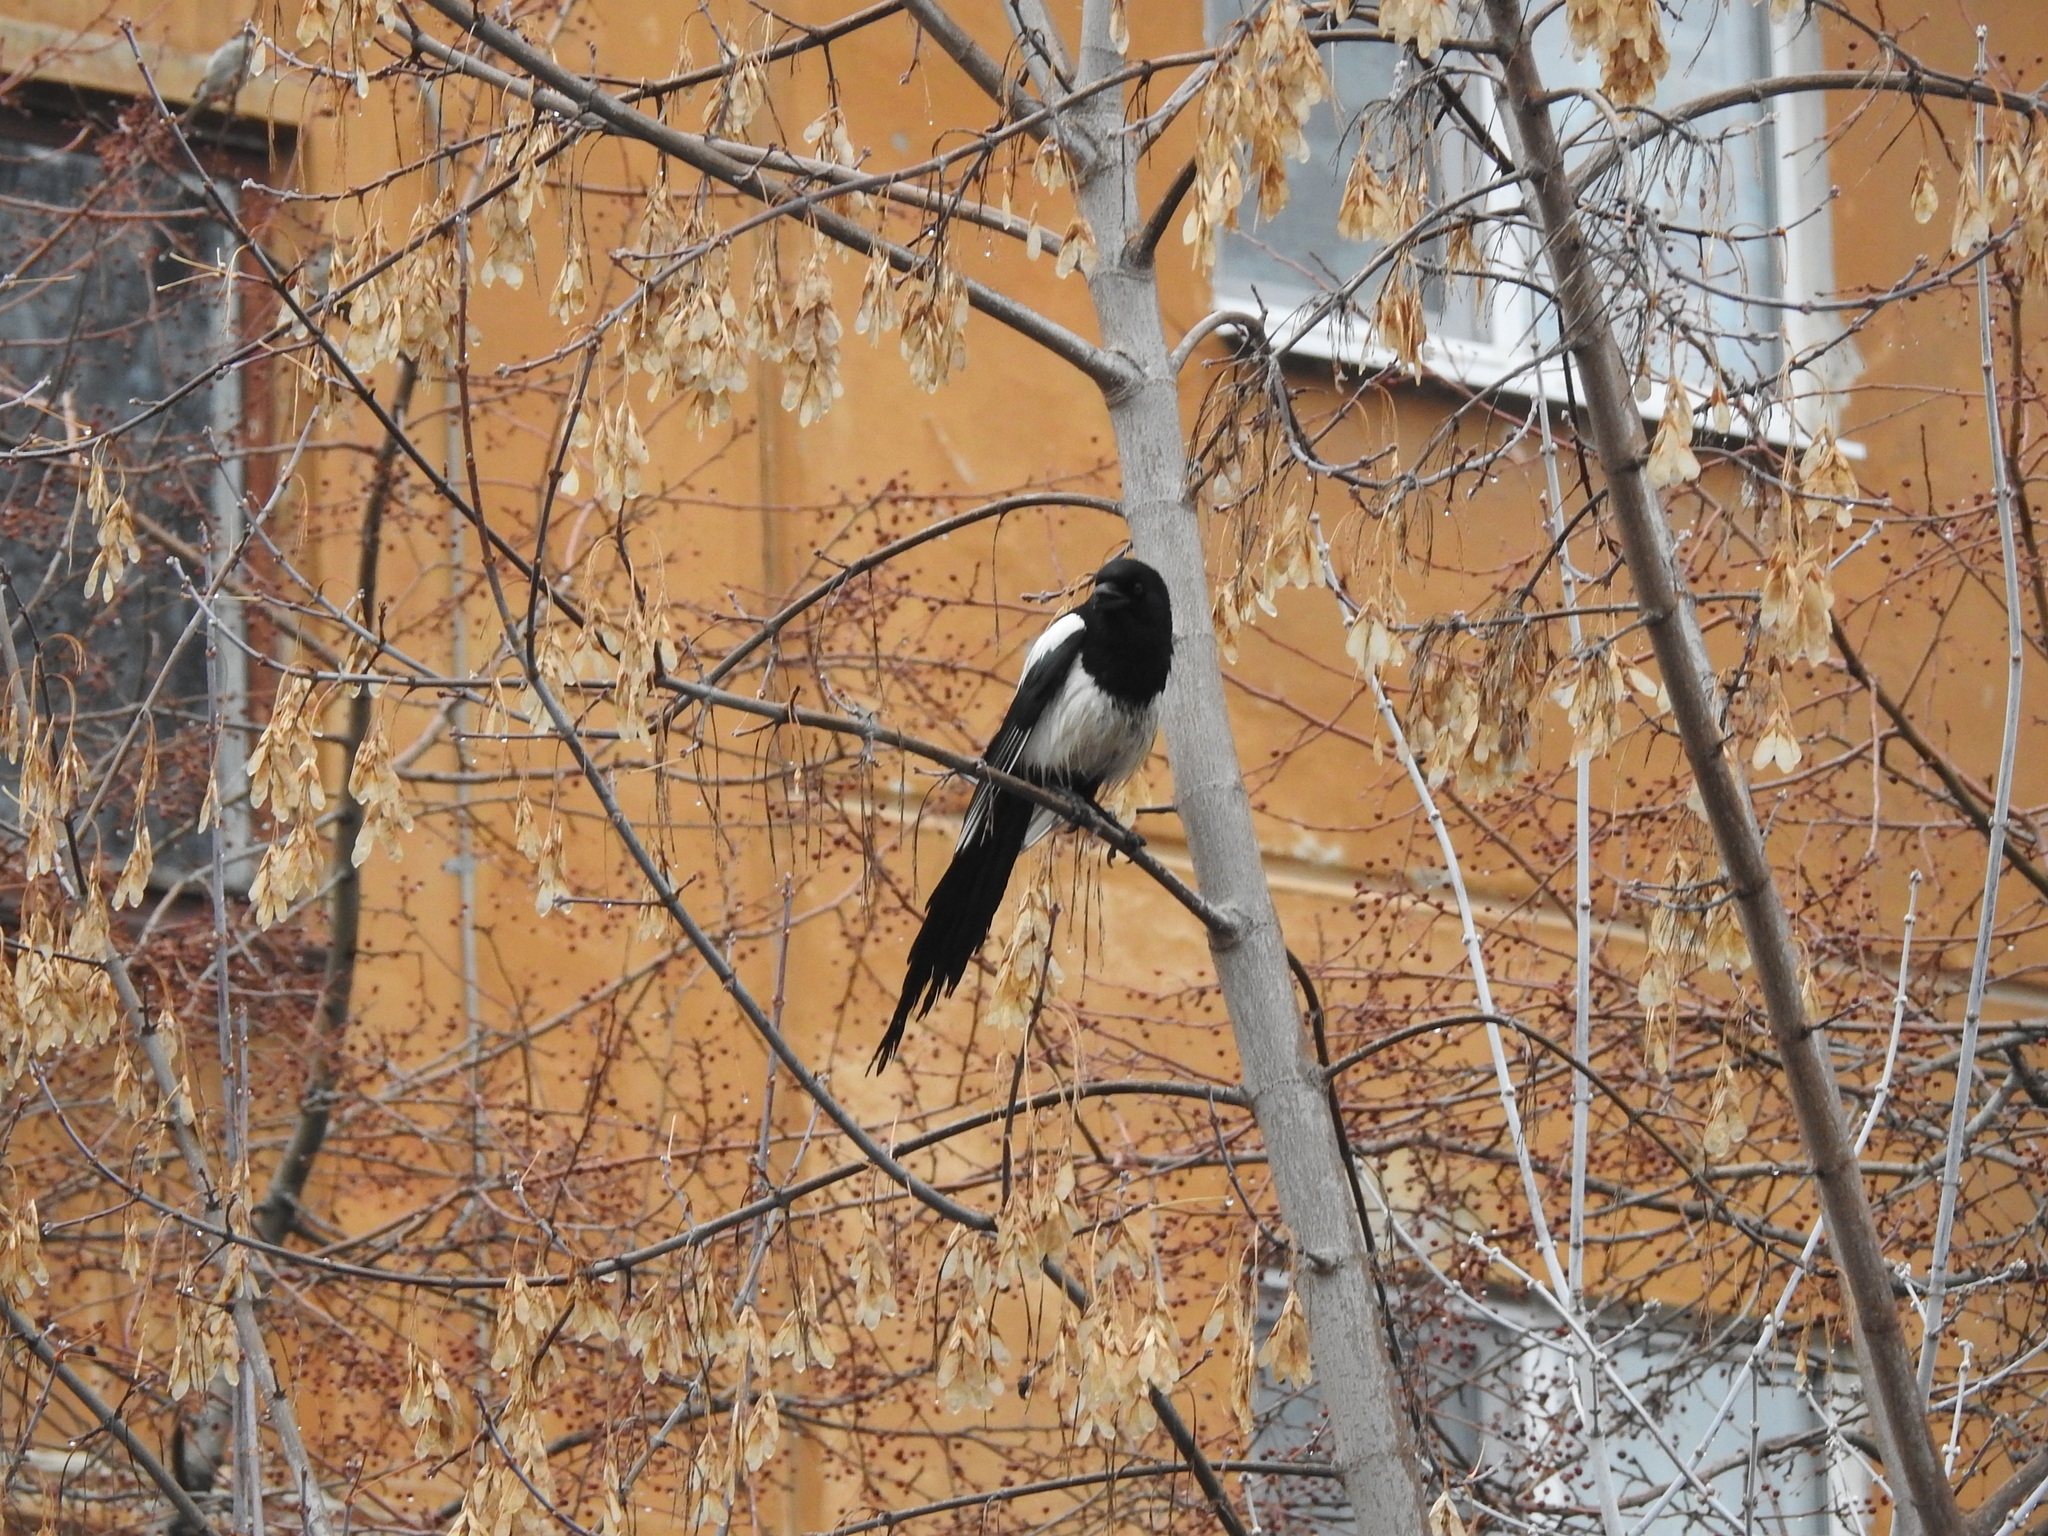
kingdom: Animalia
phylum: Chordata
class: Aves
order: Passeriformes
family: Corvidae
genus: Pica
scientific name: Pica pica
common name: Eurasian magpie
